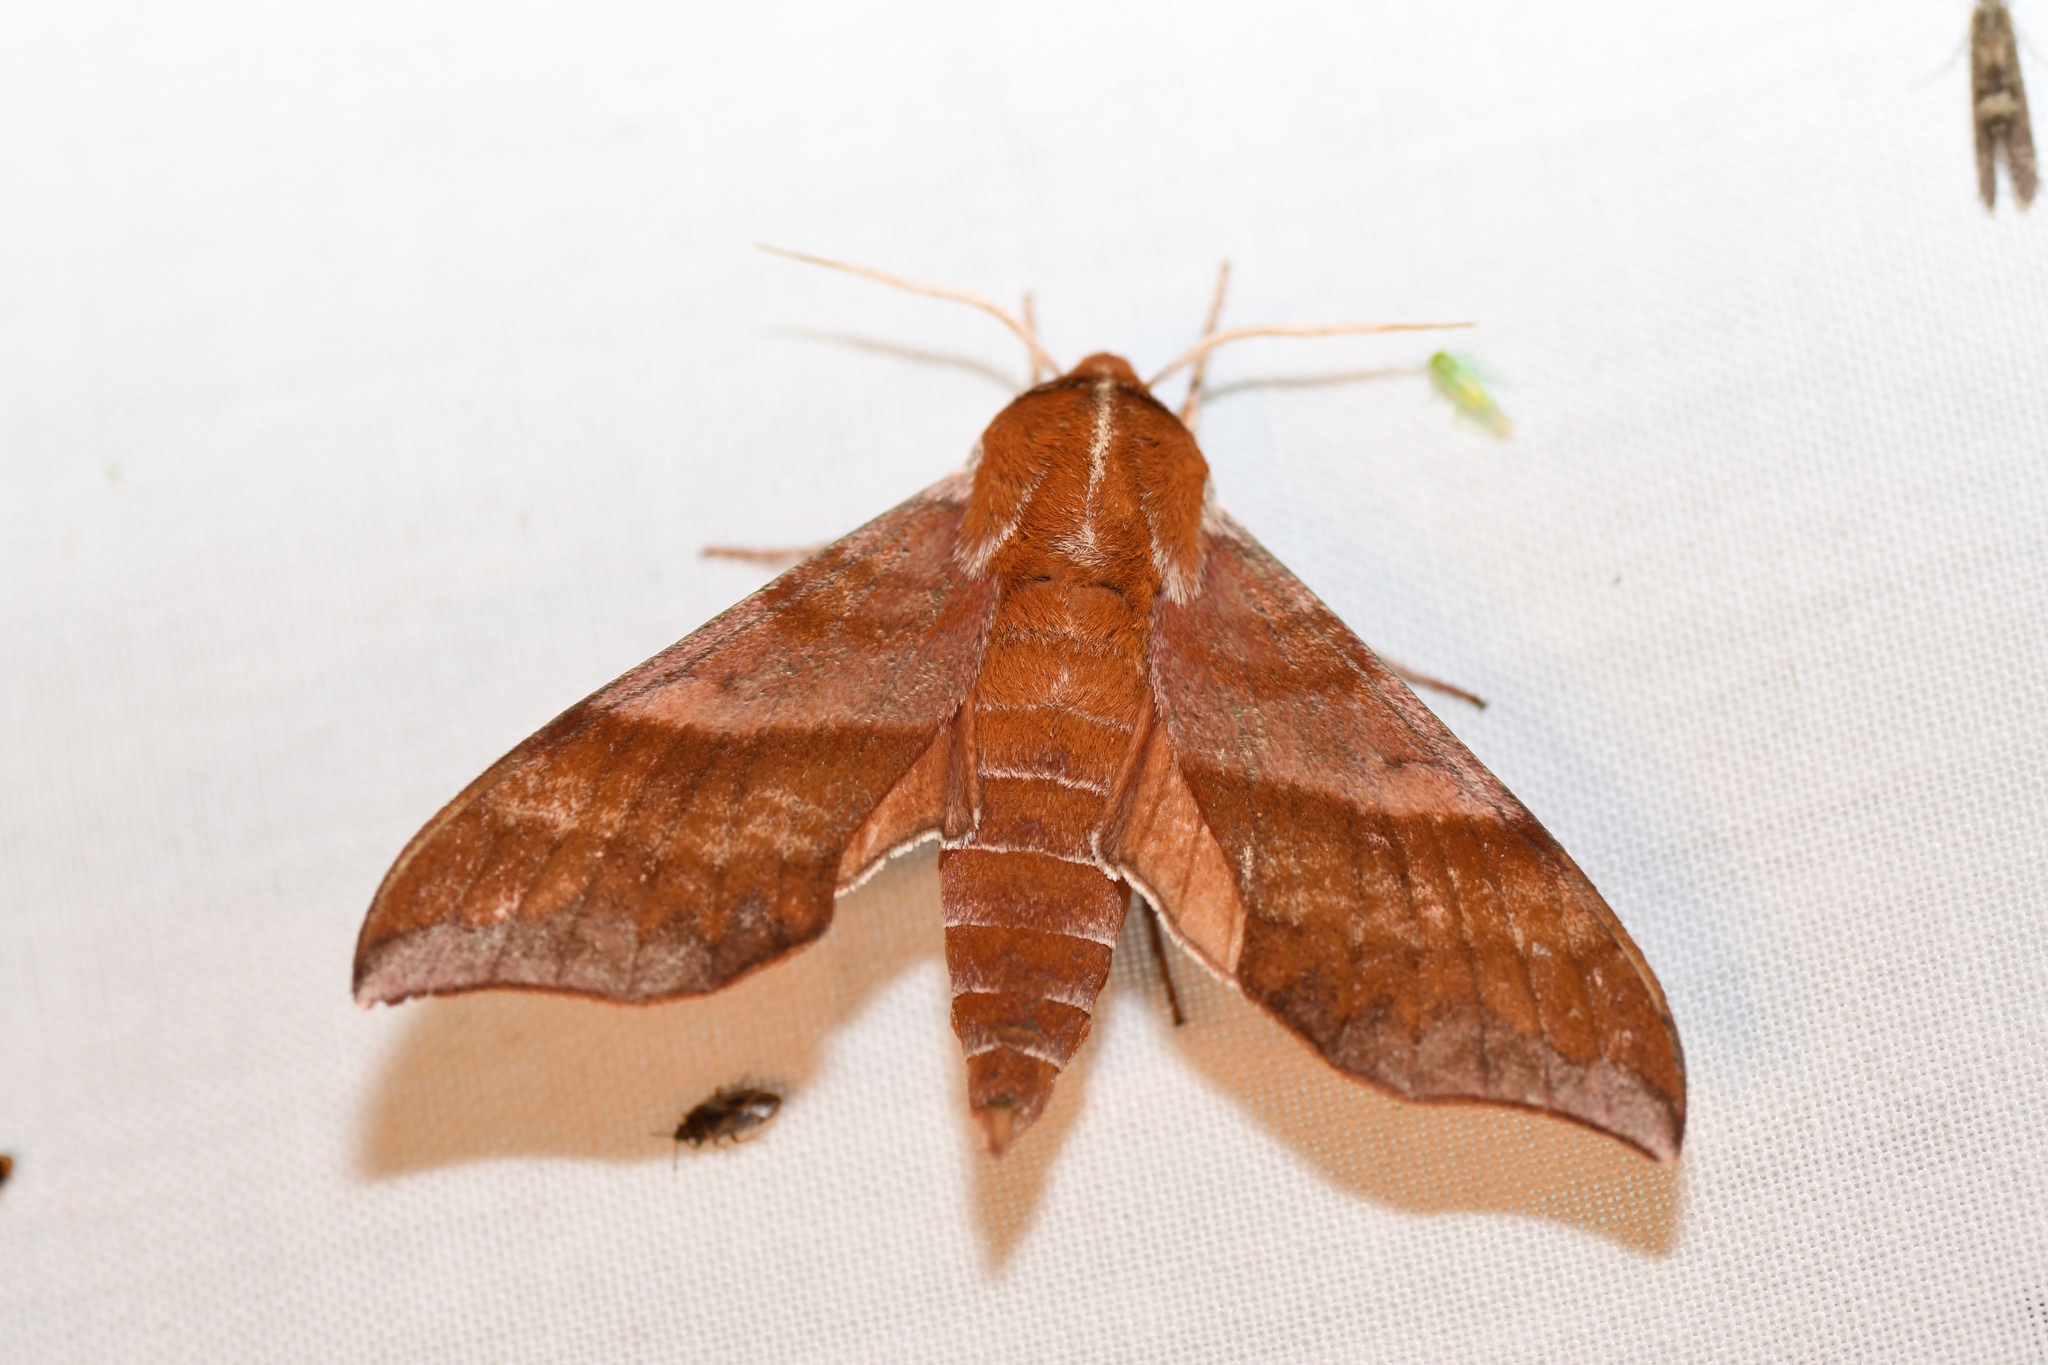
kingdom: Animalia
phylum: Arthropoda
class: Insecta
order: Lepidoptera
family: Sphingidae
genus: Darapsa
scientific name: Darapsa choerilus
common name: Azalea sphinx
